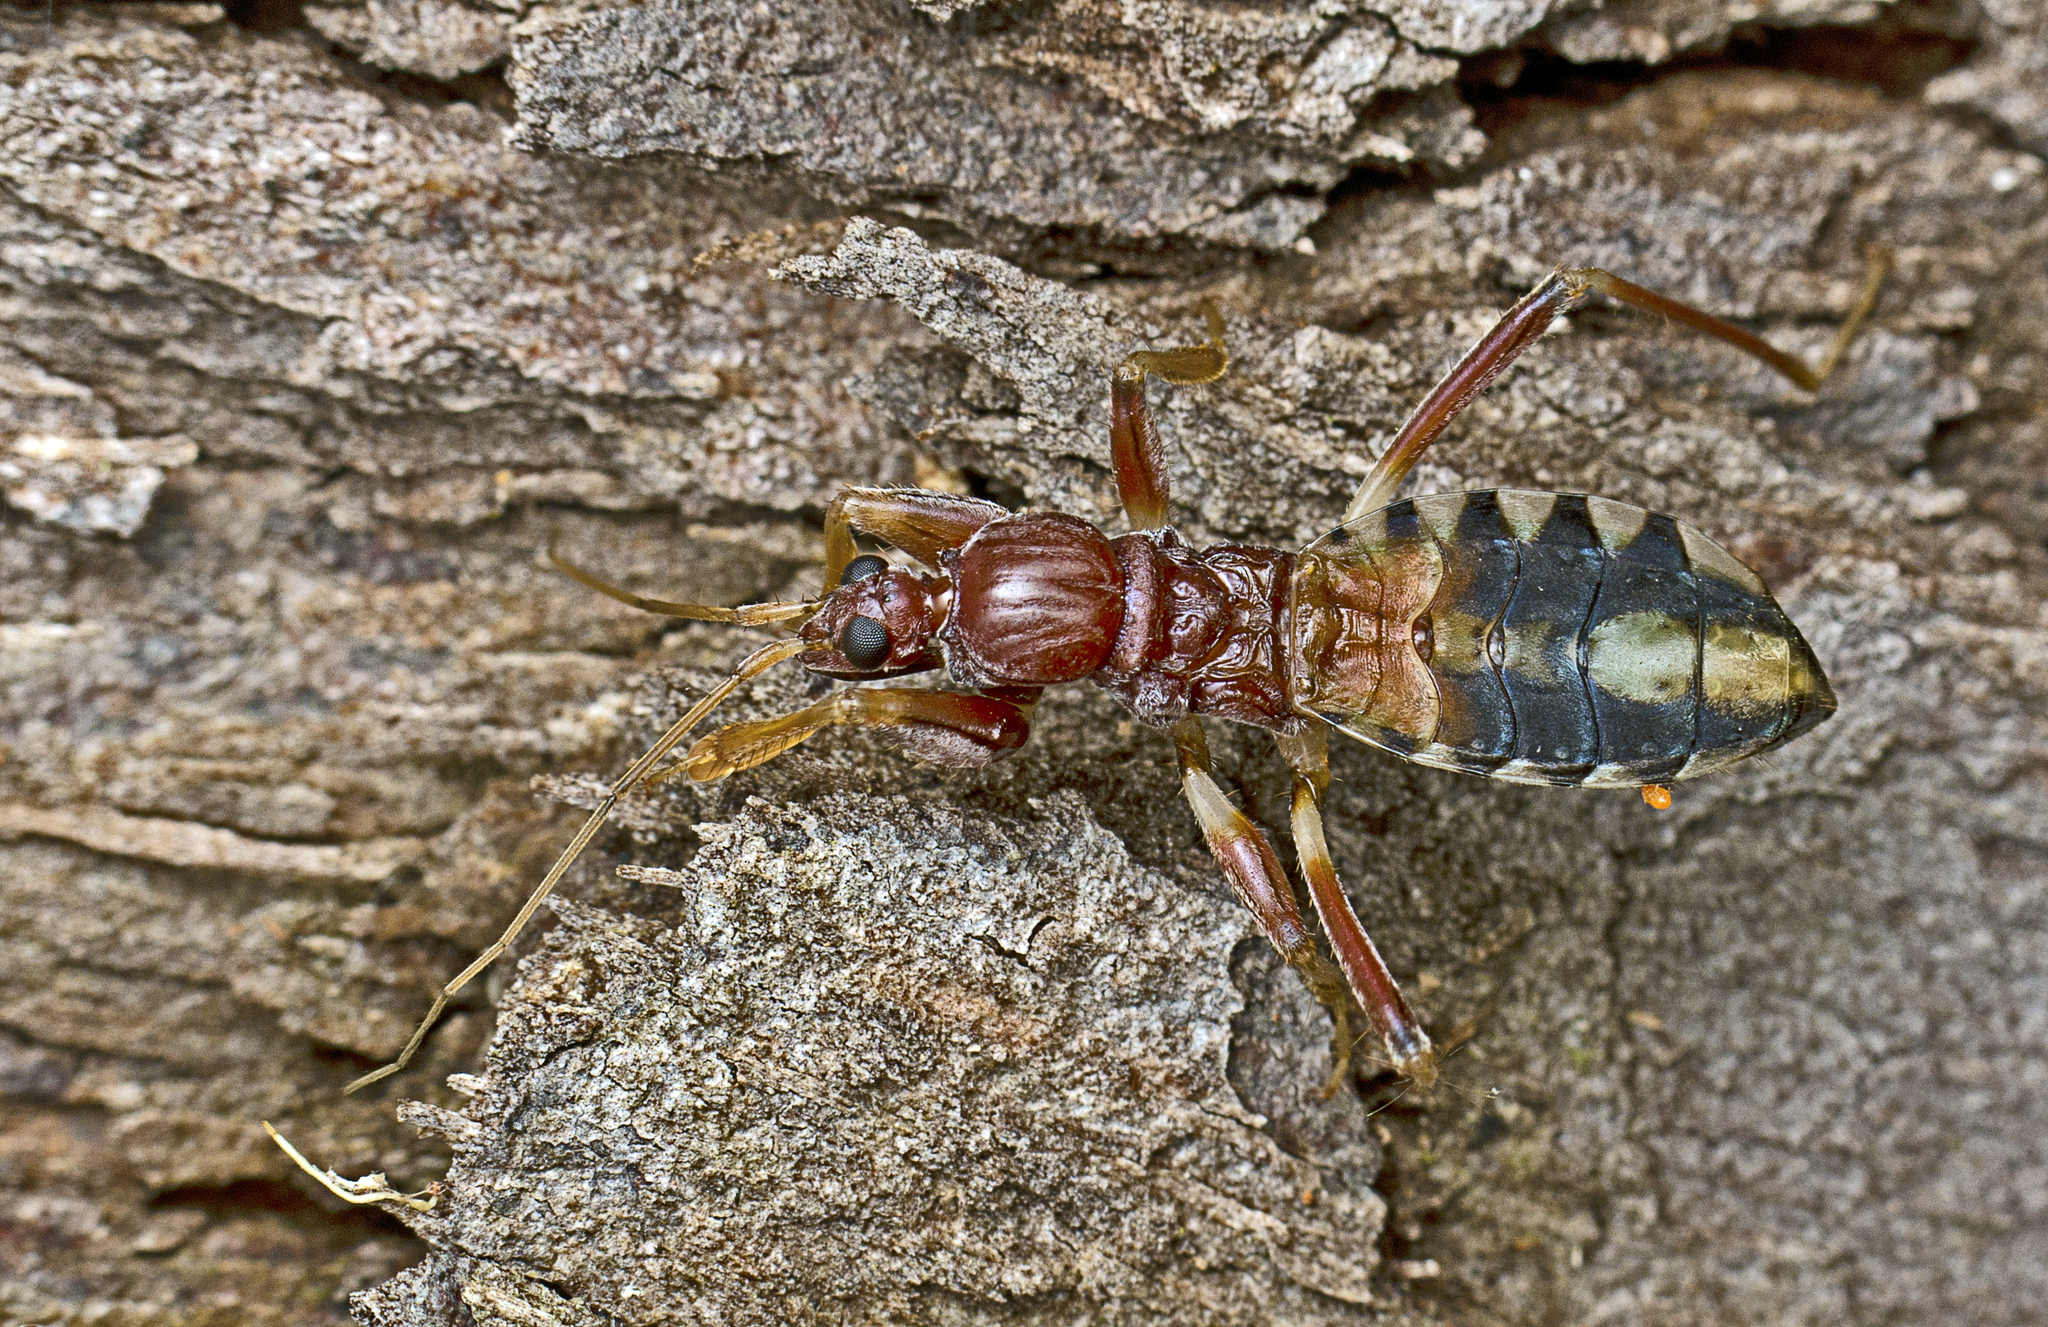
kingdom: Animalia
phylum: Arthropoda
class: Insecta
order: Hemiptera
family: Reduviidae
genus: Ectomocoris
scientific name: Ectomocoris decoratus
